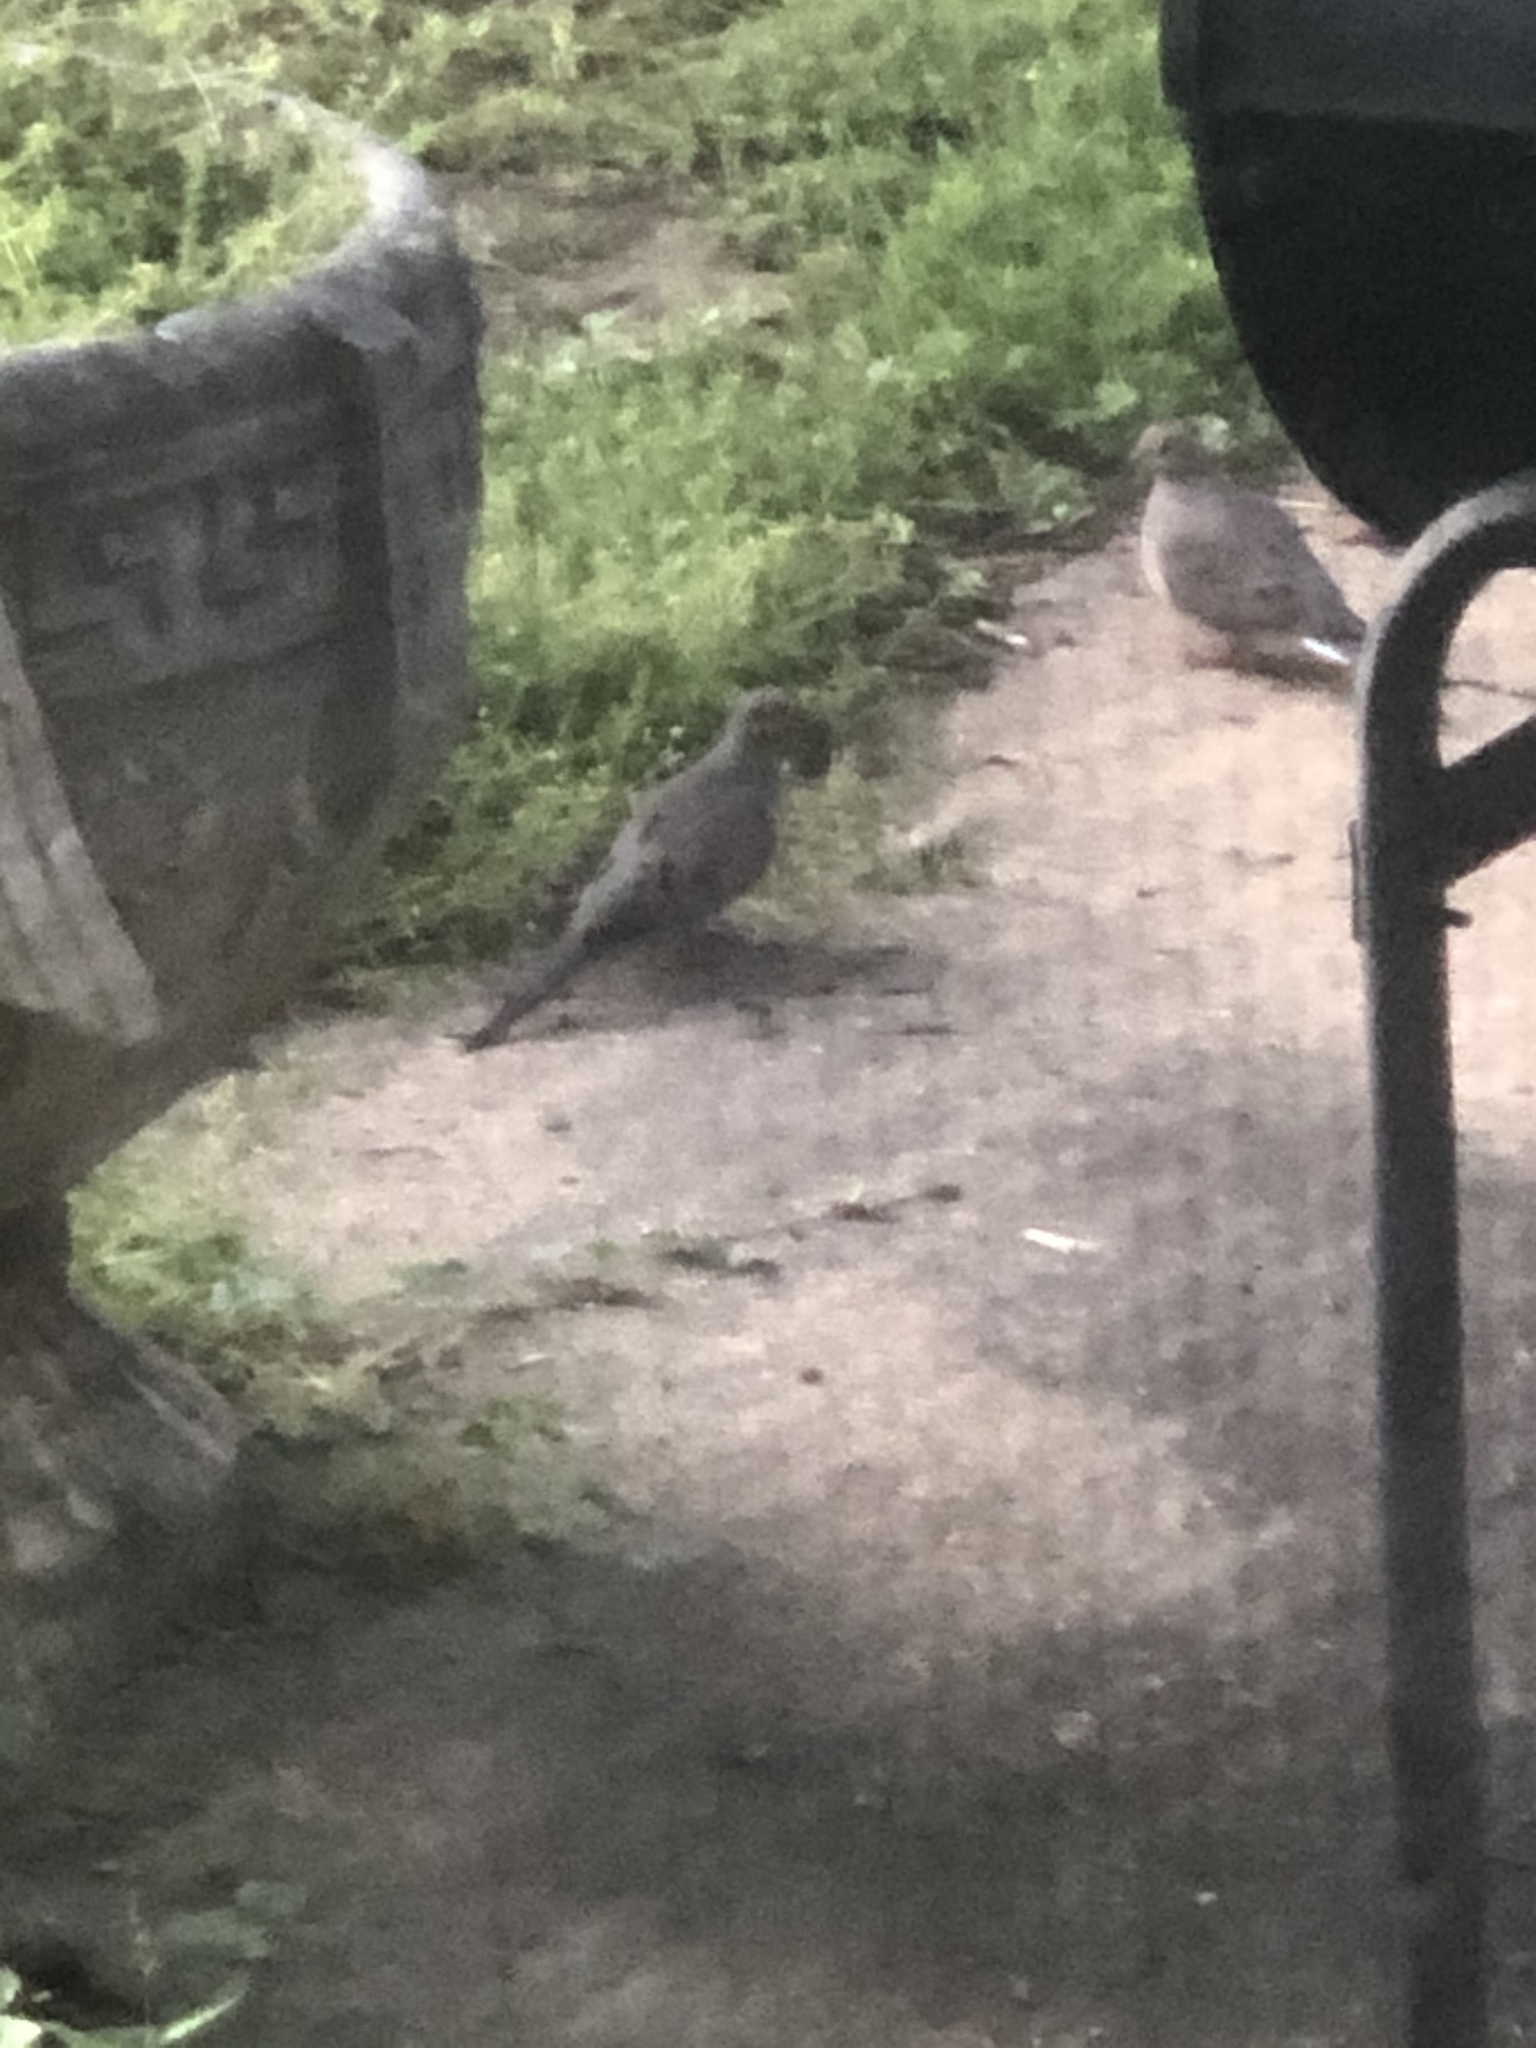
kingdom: Animalia
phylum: Chordata
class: Aves
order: Columbiformes
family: Columbidae
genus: Zenaida
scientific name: Zenaida macroura
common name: Mourning dove
